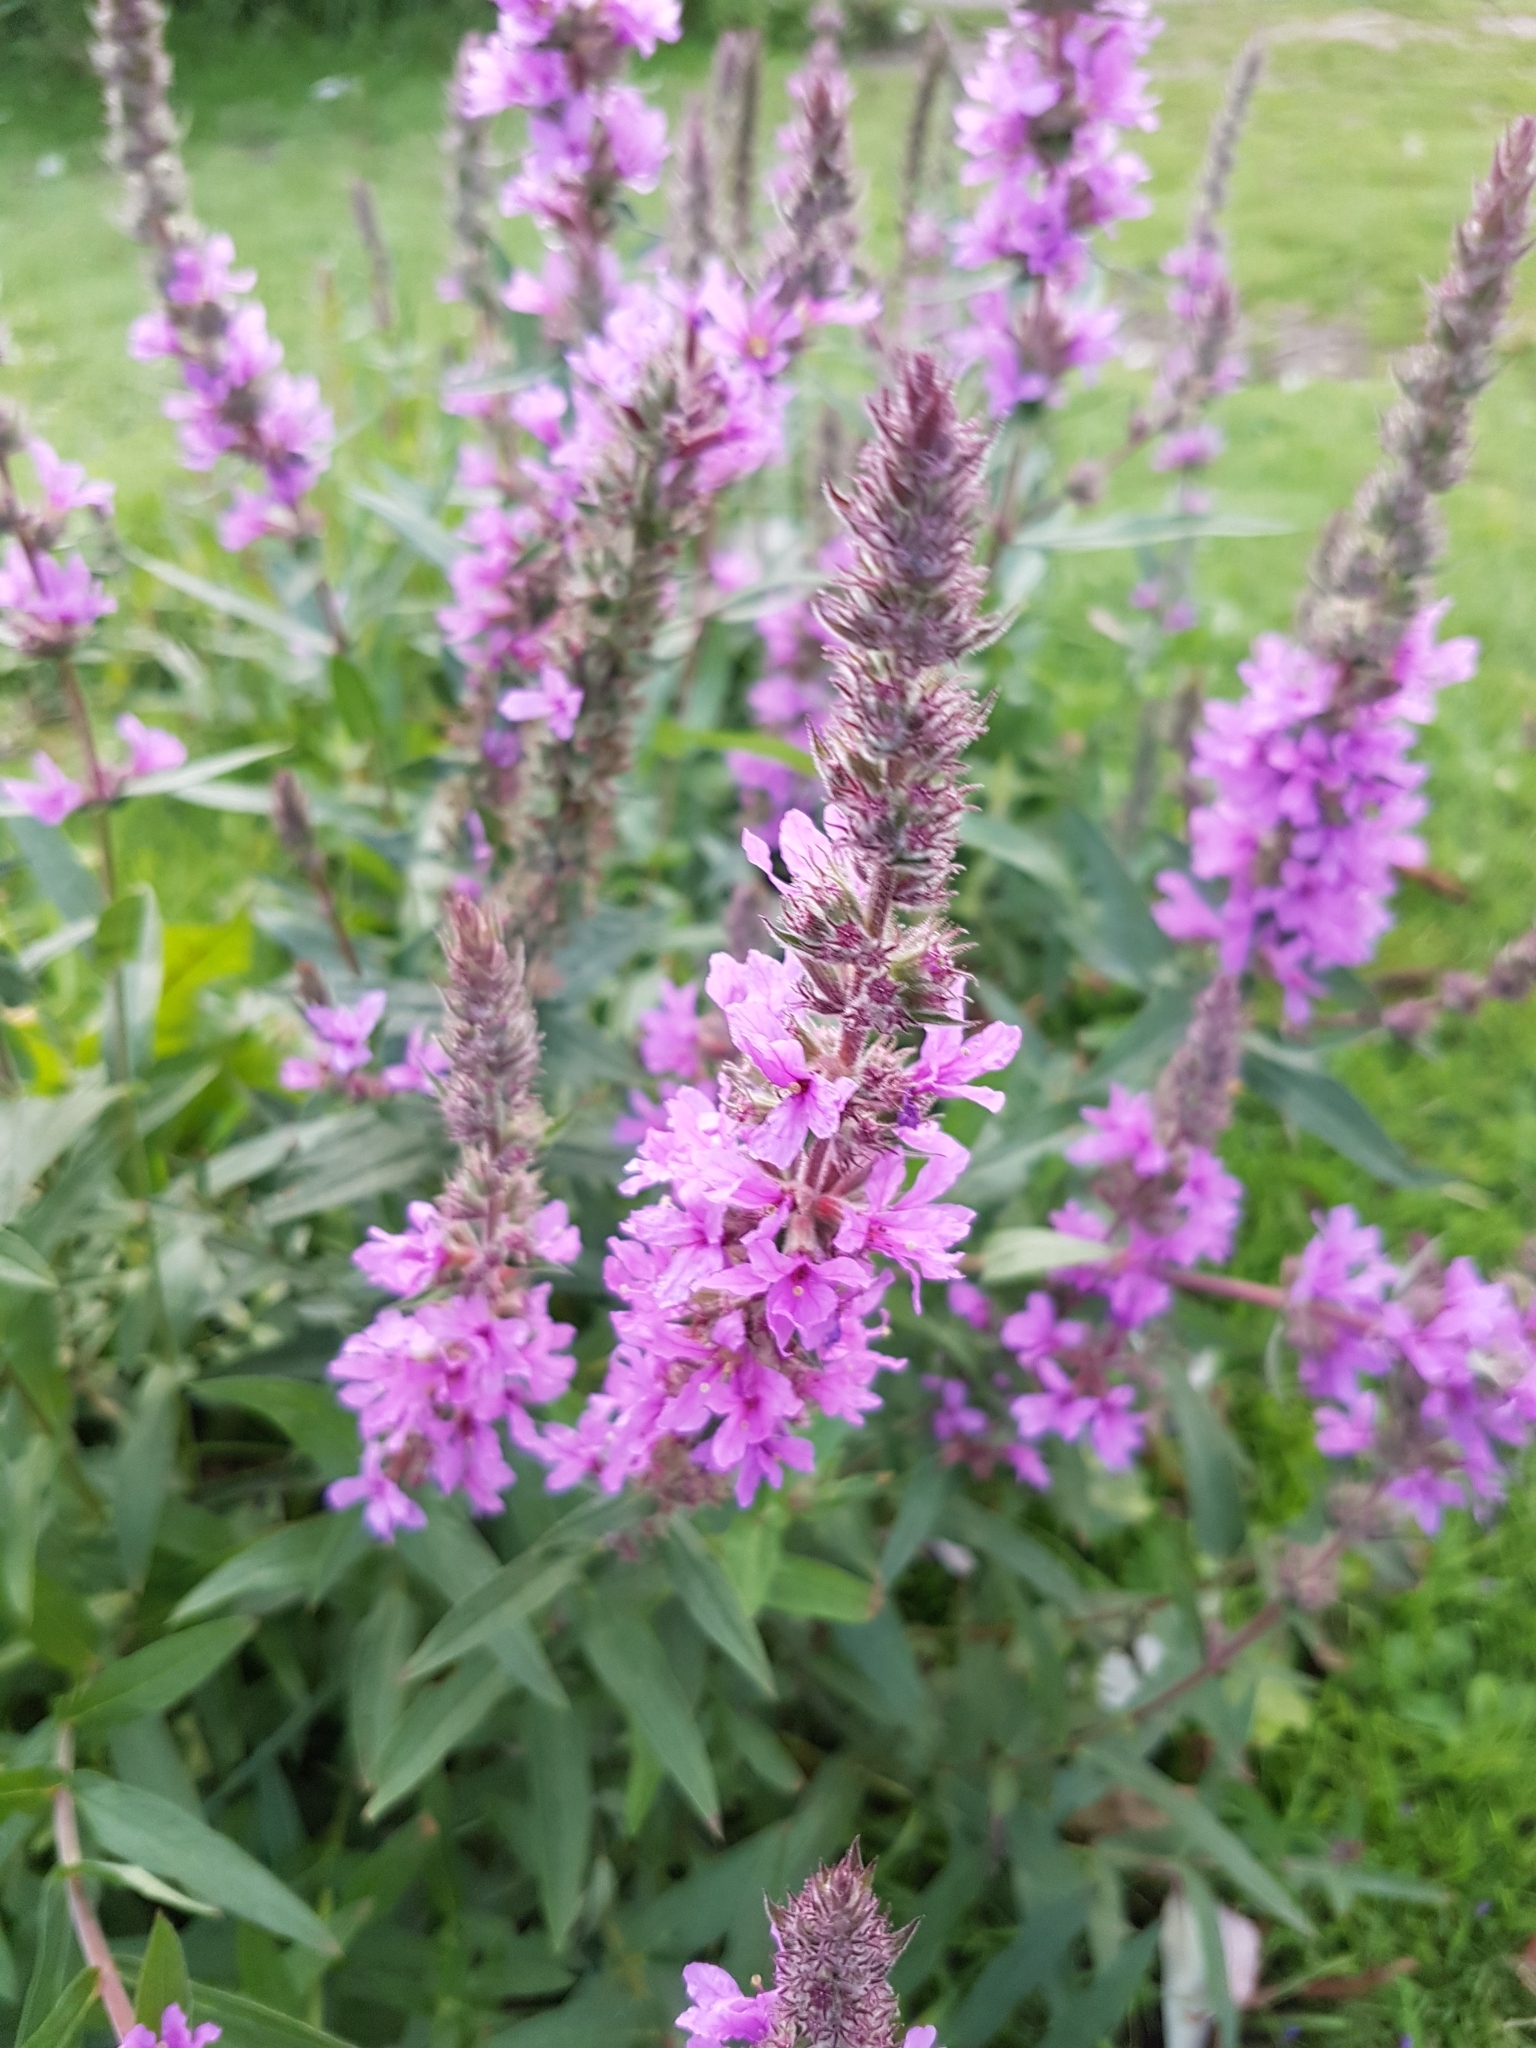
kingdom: Plantae
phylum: Tracheophyta
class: Magnoliopsida
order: Myrtales
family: Lythraceae
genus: Lythrum
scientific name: Lythrum salicaria
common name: Purple loosestrife
